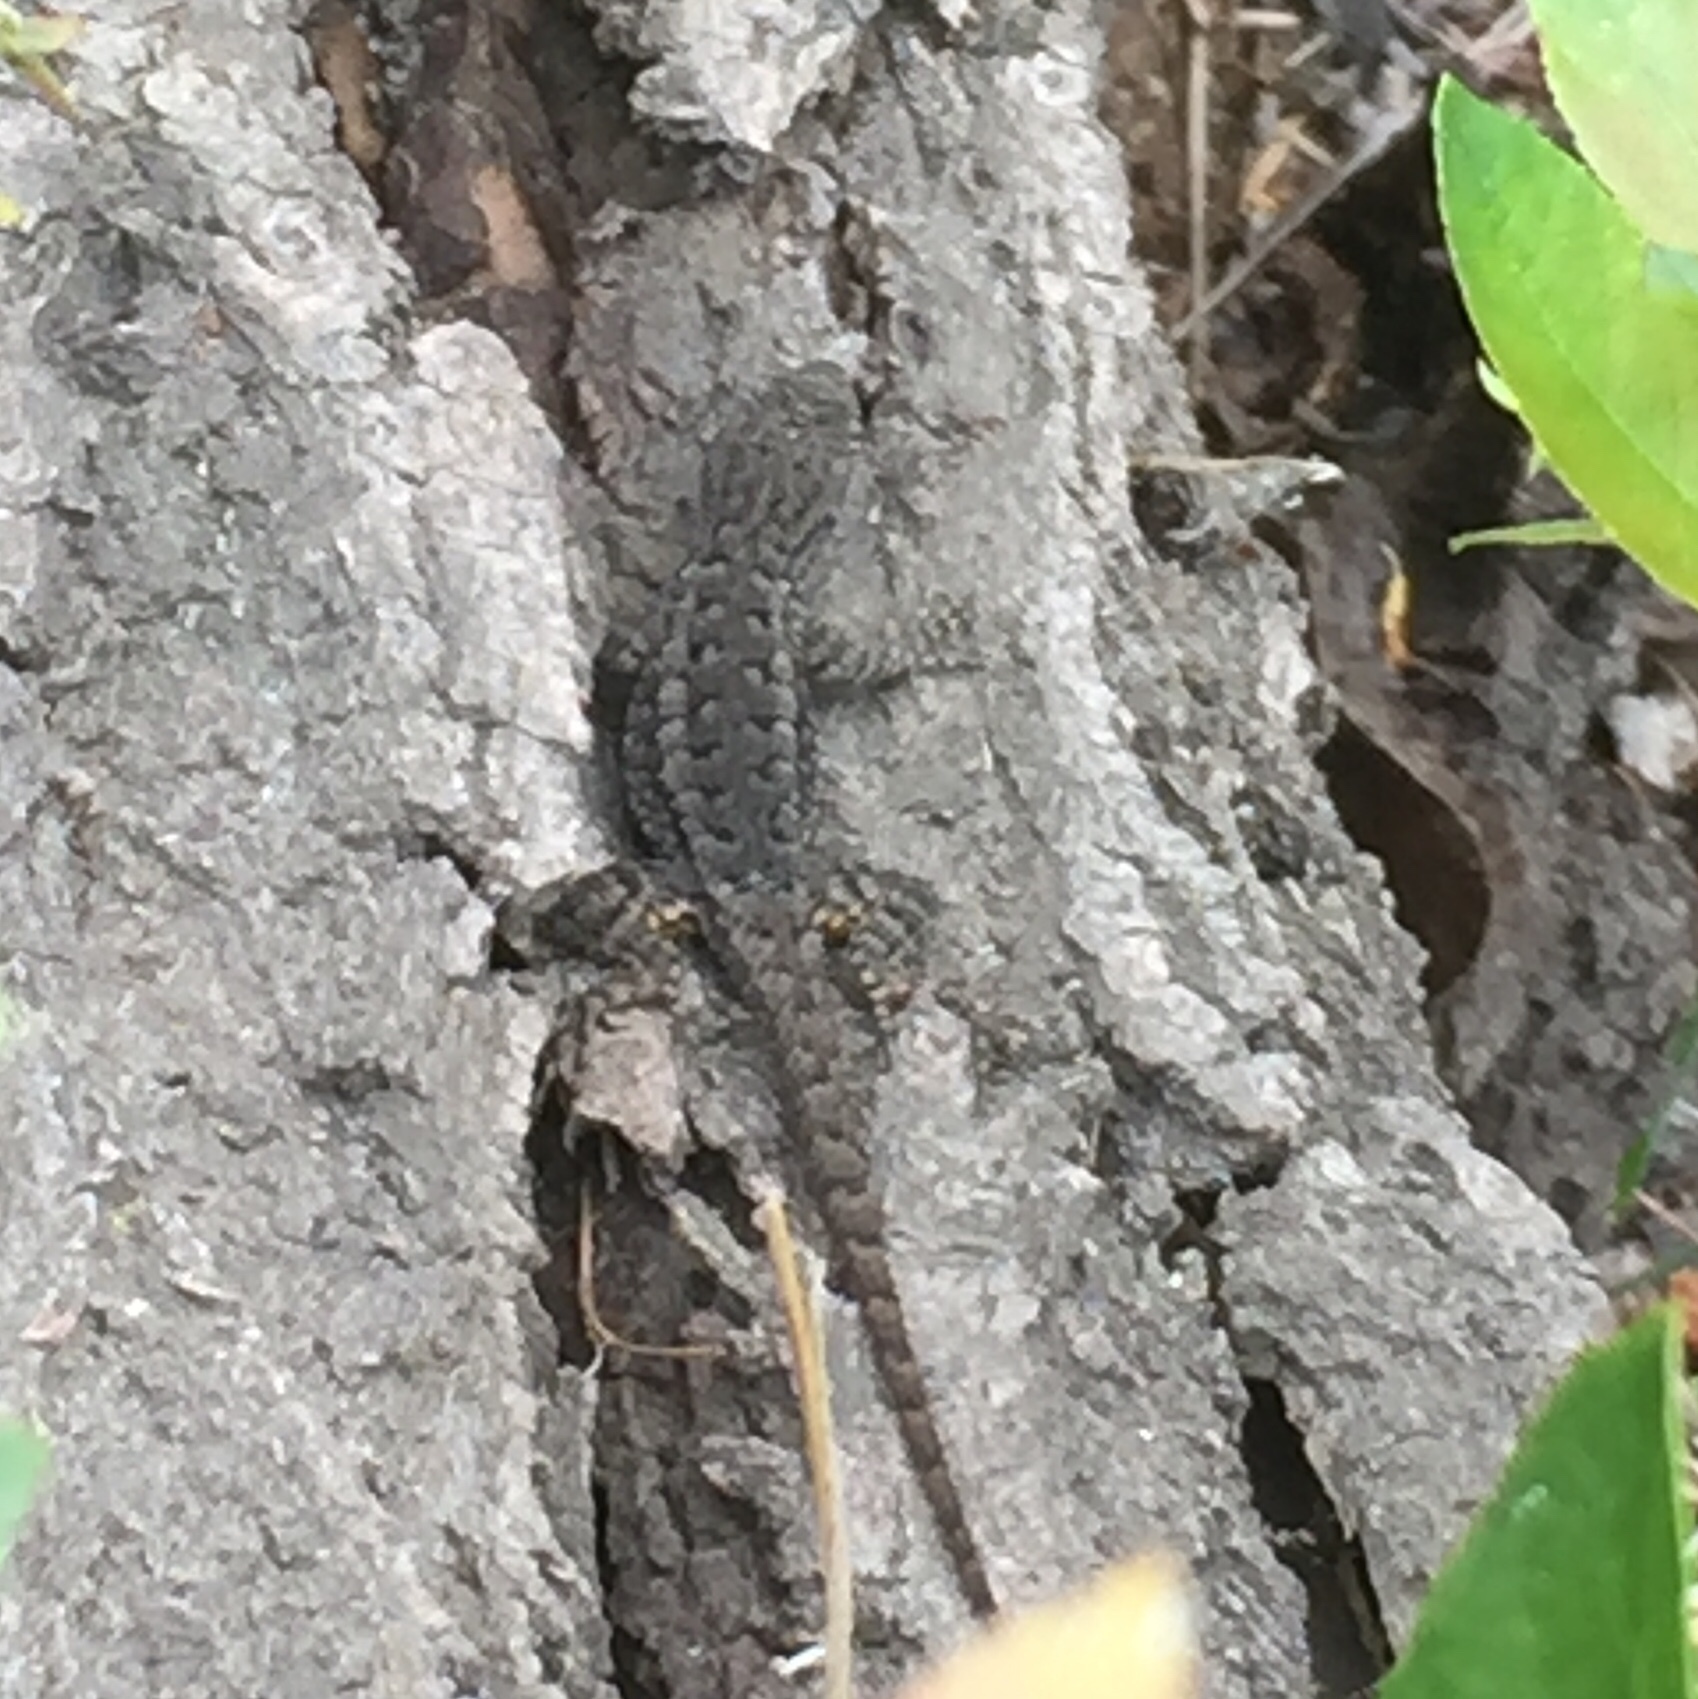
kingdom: Animalia
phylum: Chordata
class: Squamata
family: Phrynosomatidae
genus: Sceloporus
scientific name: Sceloporus occidentalis
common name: Western fence lizard
